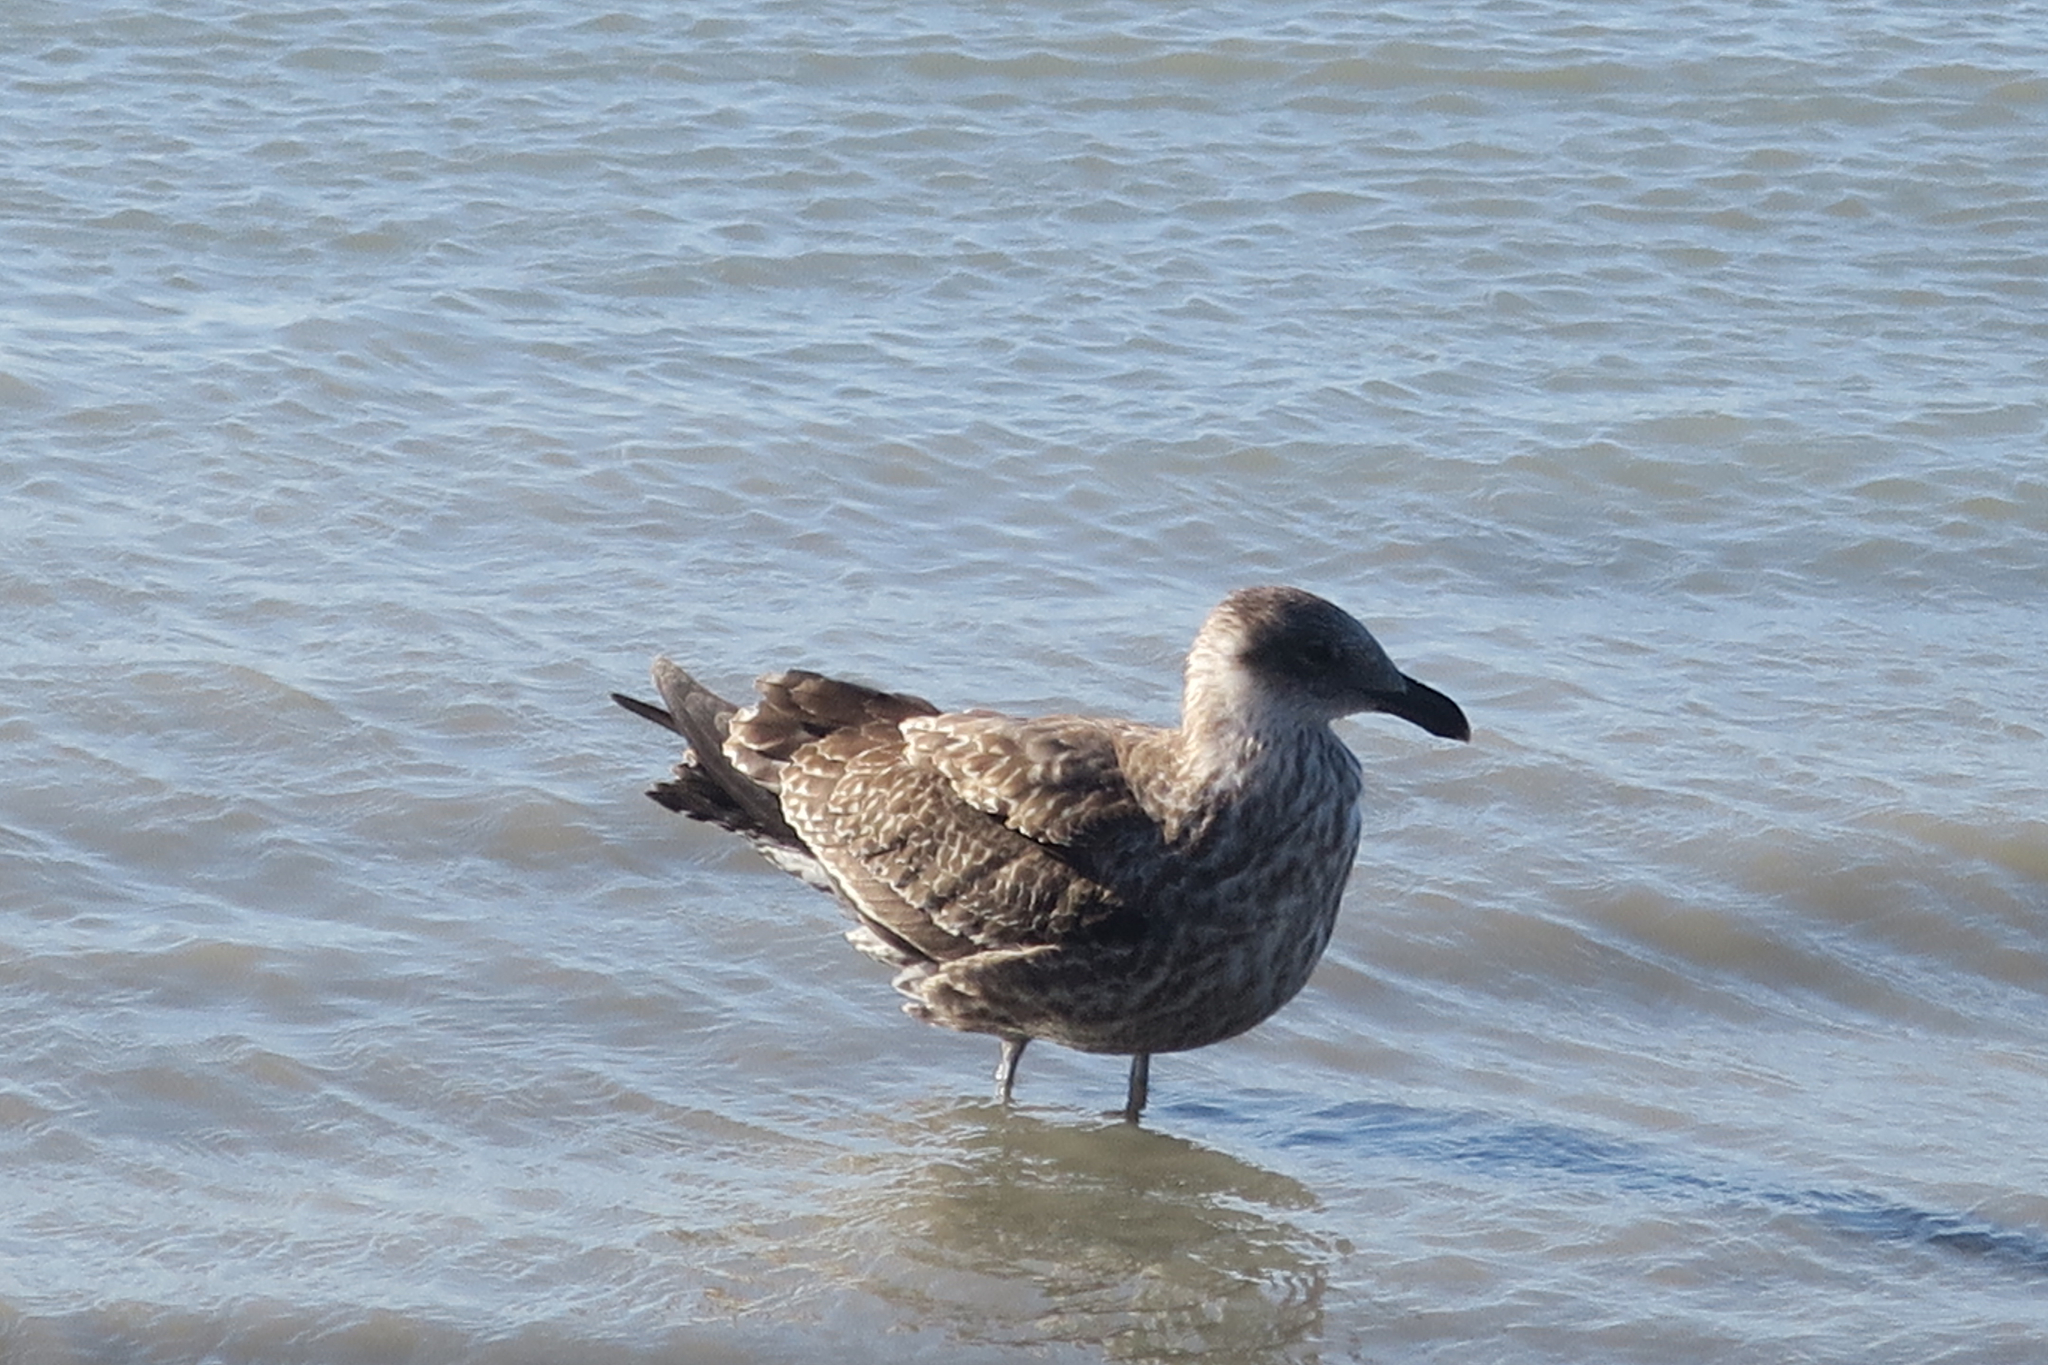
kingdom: Animalia
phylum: Chordata
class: Aves
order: Charadriiformes
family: Laridae
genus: Larus
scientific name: Larus dominicanus
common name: Kelp gull
